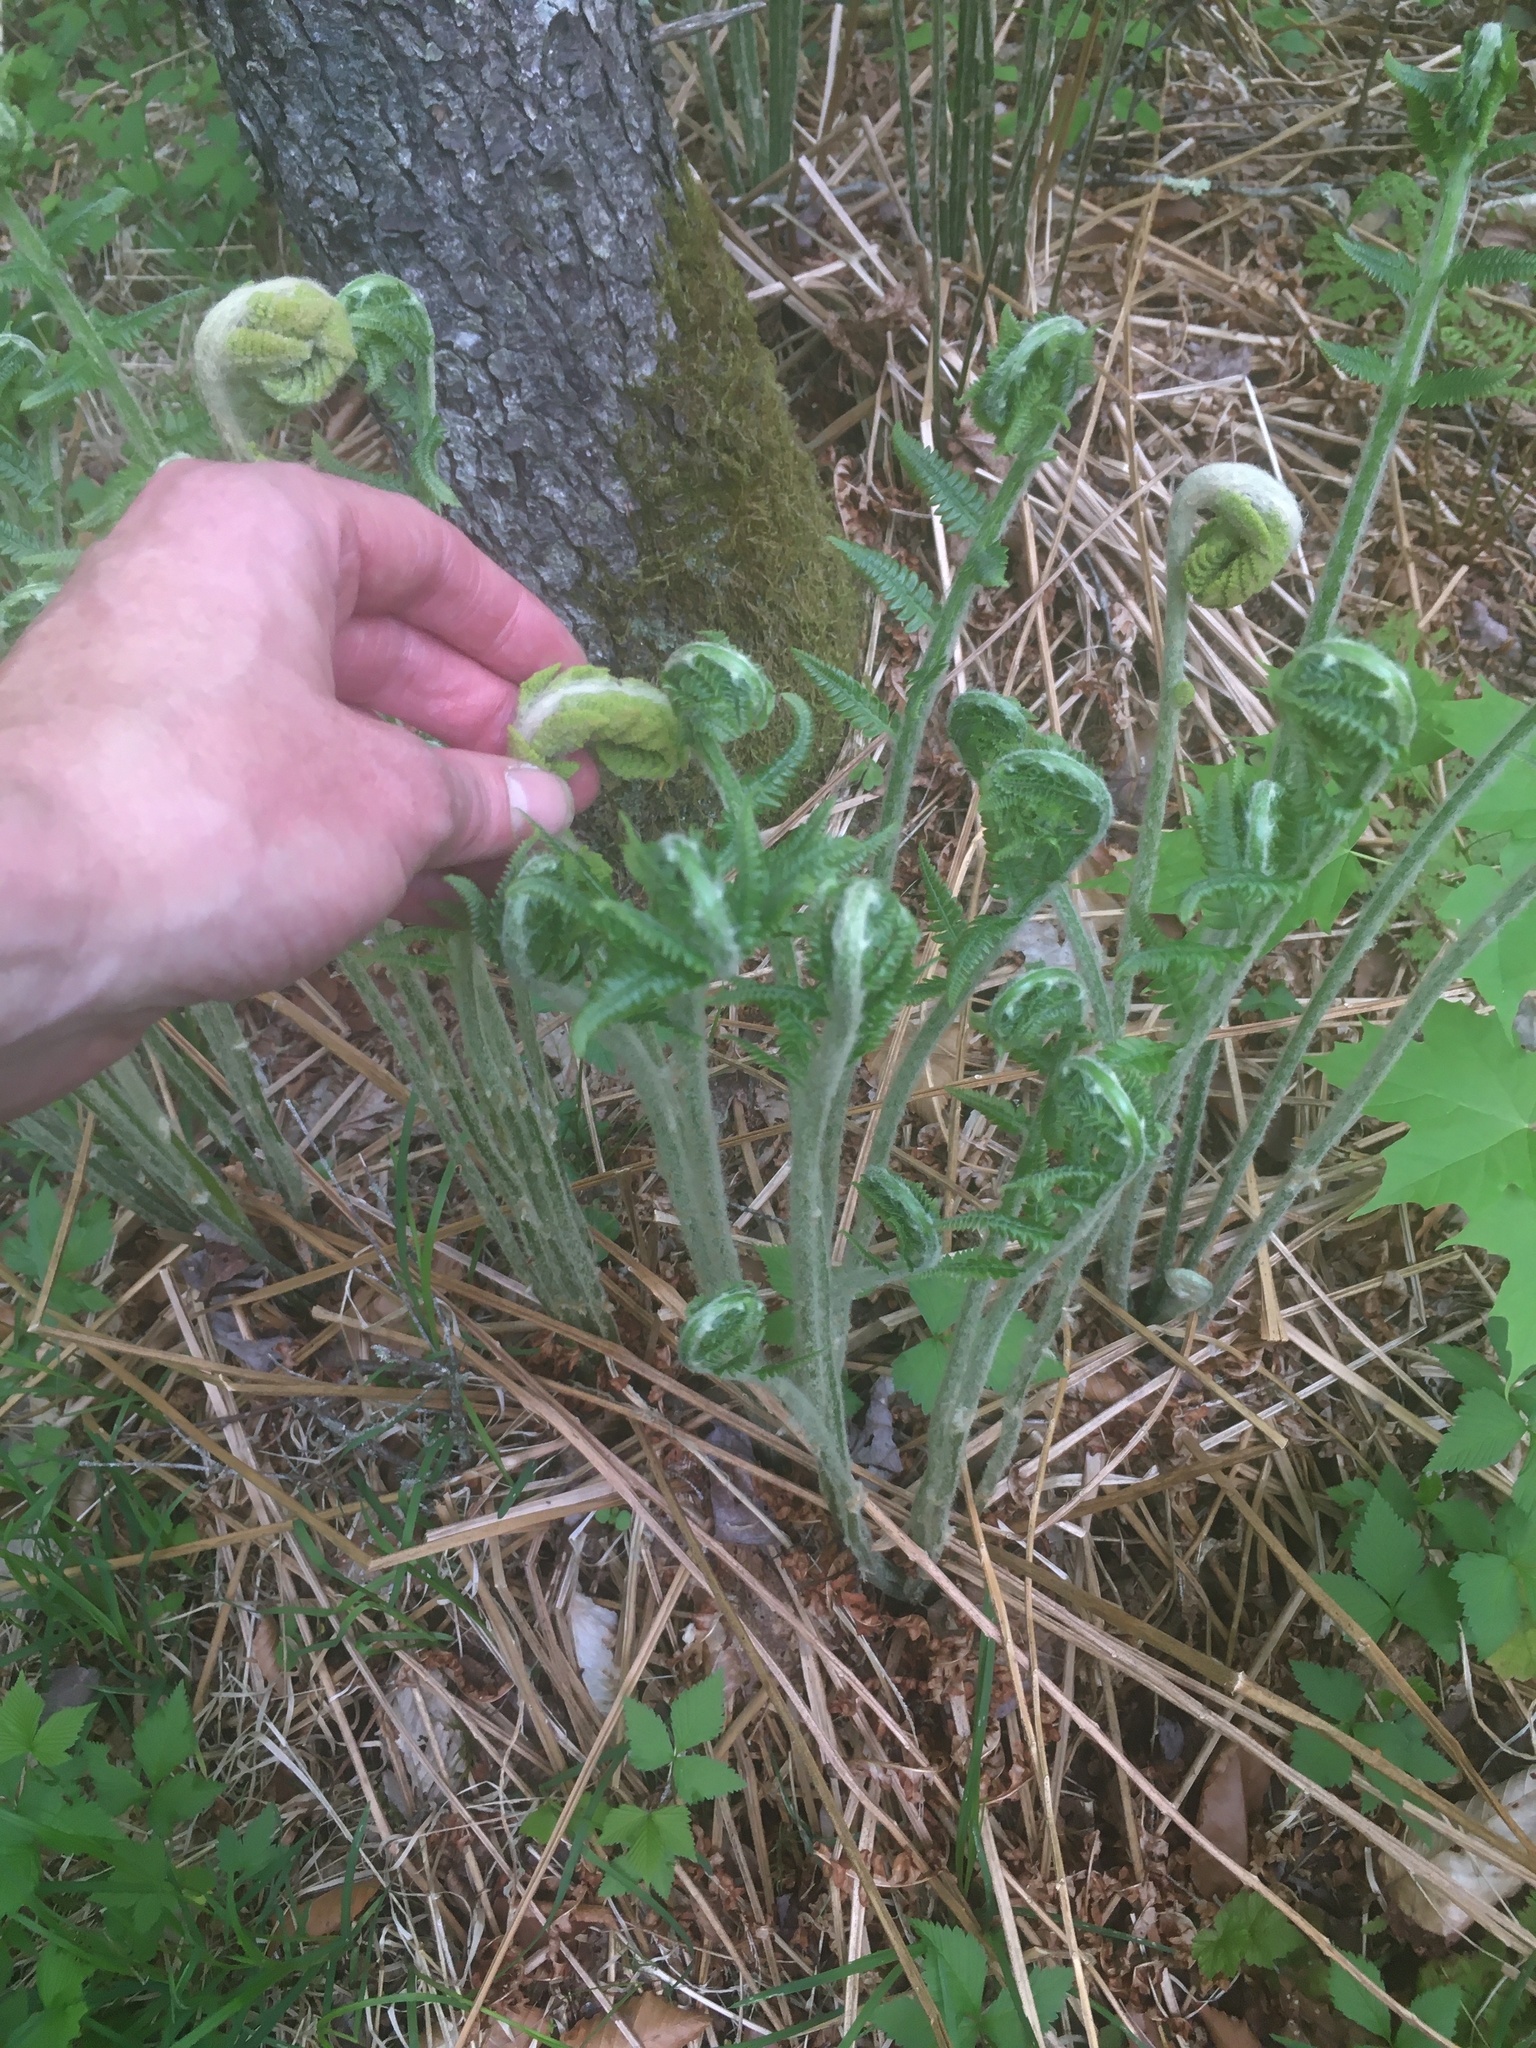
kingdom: Plantae
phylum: Tracheophyta
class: Polypodiopsida
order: Osmundales
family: Osmundaceae
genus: Osmundastrum
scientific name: Osmundastrum cinnamomeum
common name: Cinnamon fern
